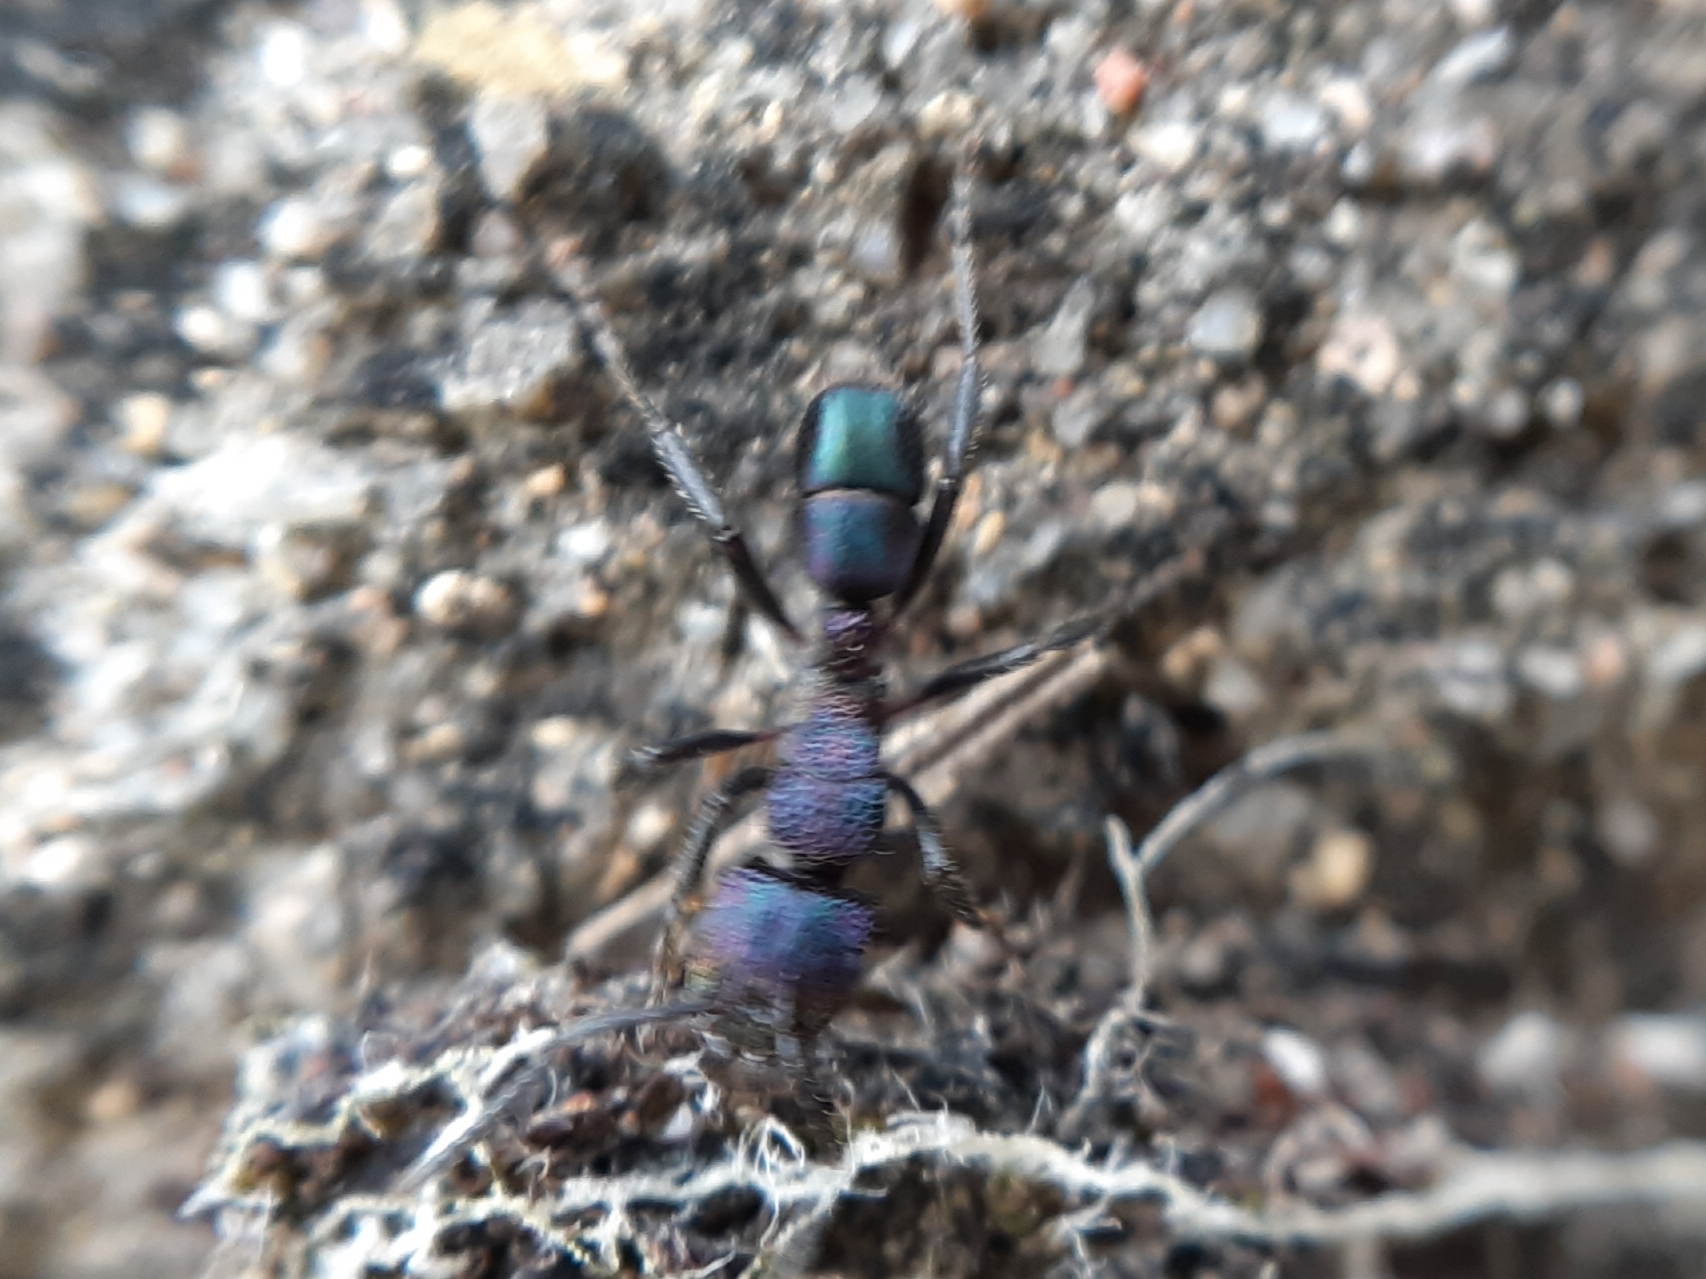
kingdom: Animalia
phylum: Arthropoda
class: Insecta
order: Hymenoptera
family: Formicidae
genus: Rhytidoponera
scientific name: Rhytidoponera metallica
